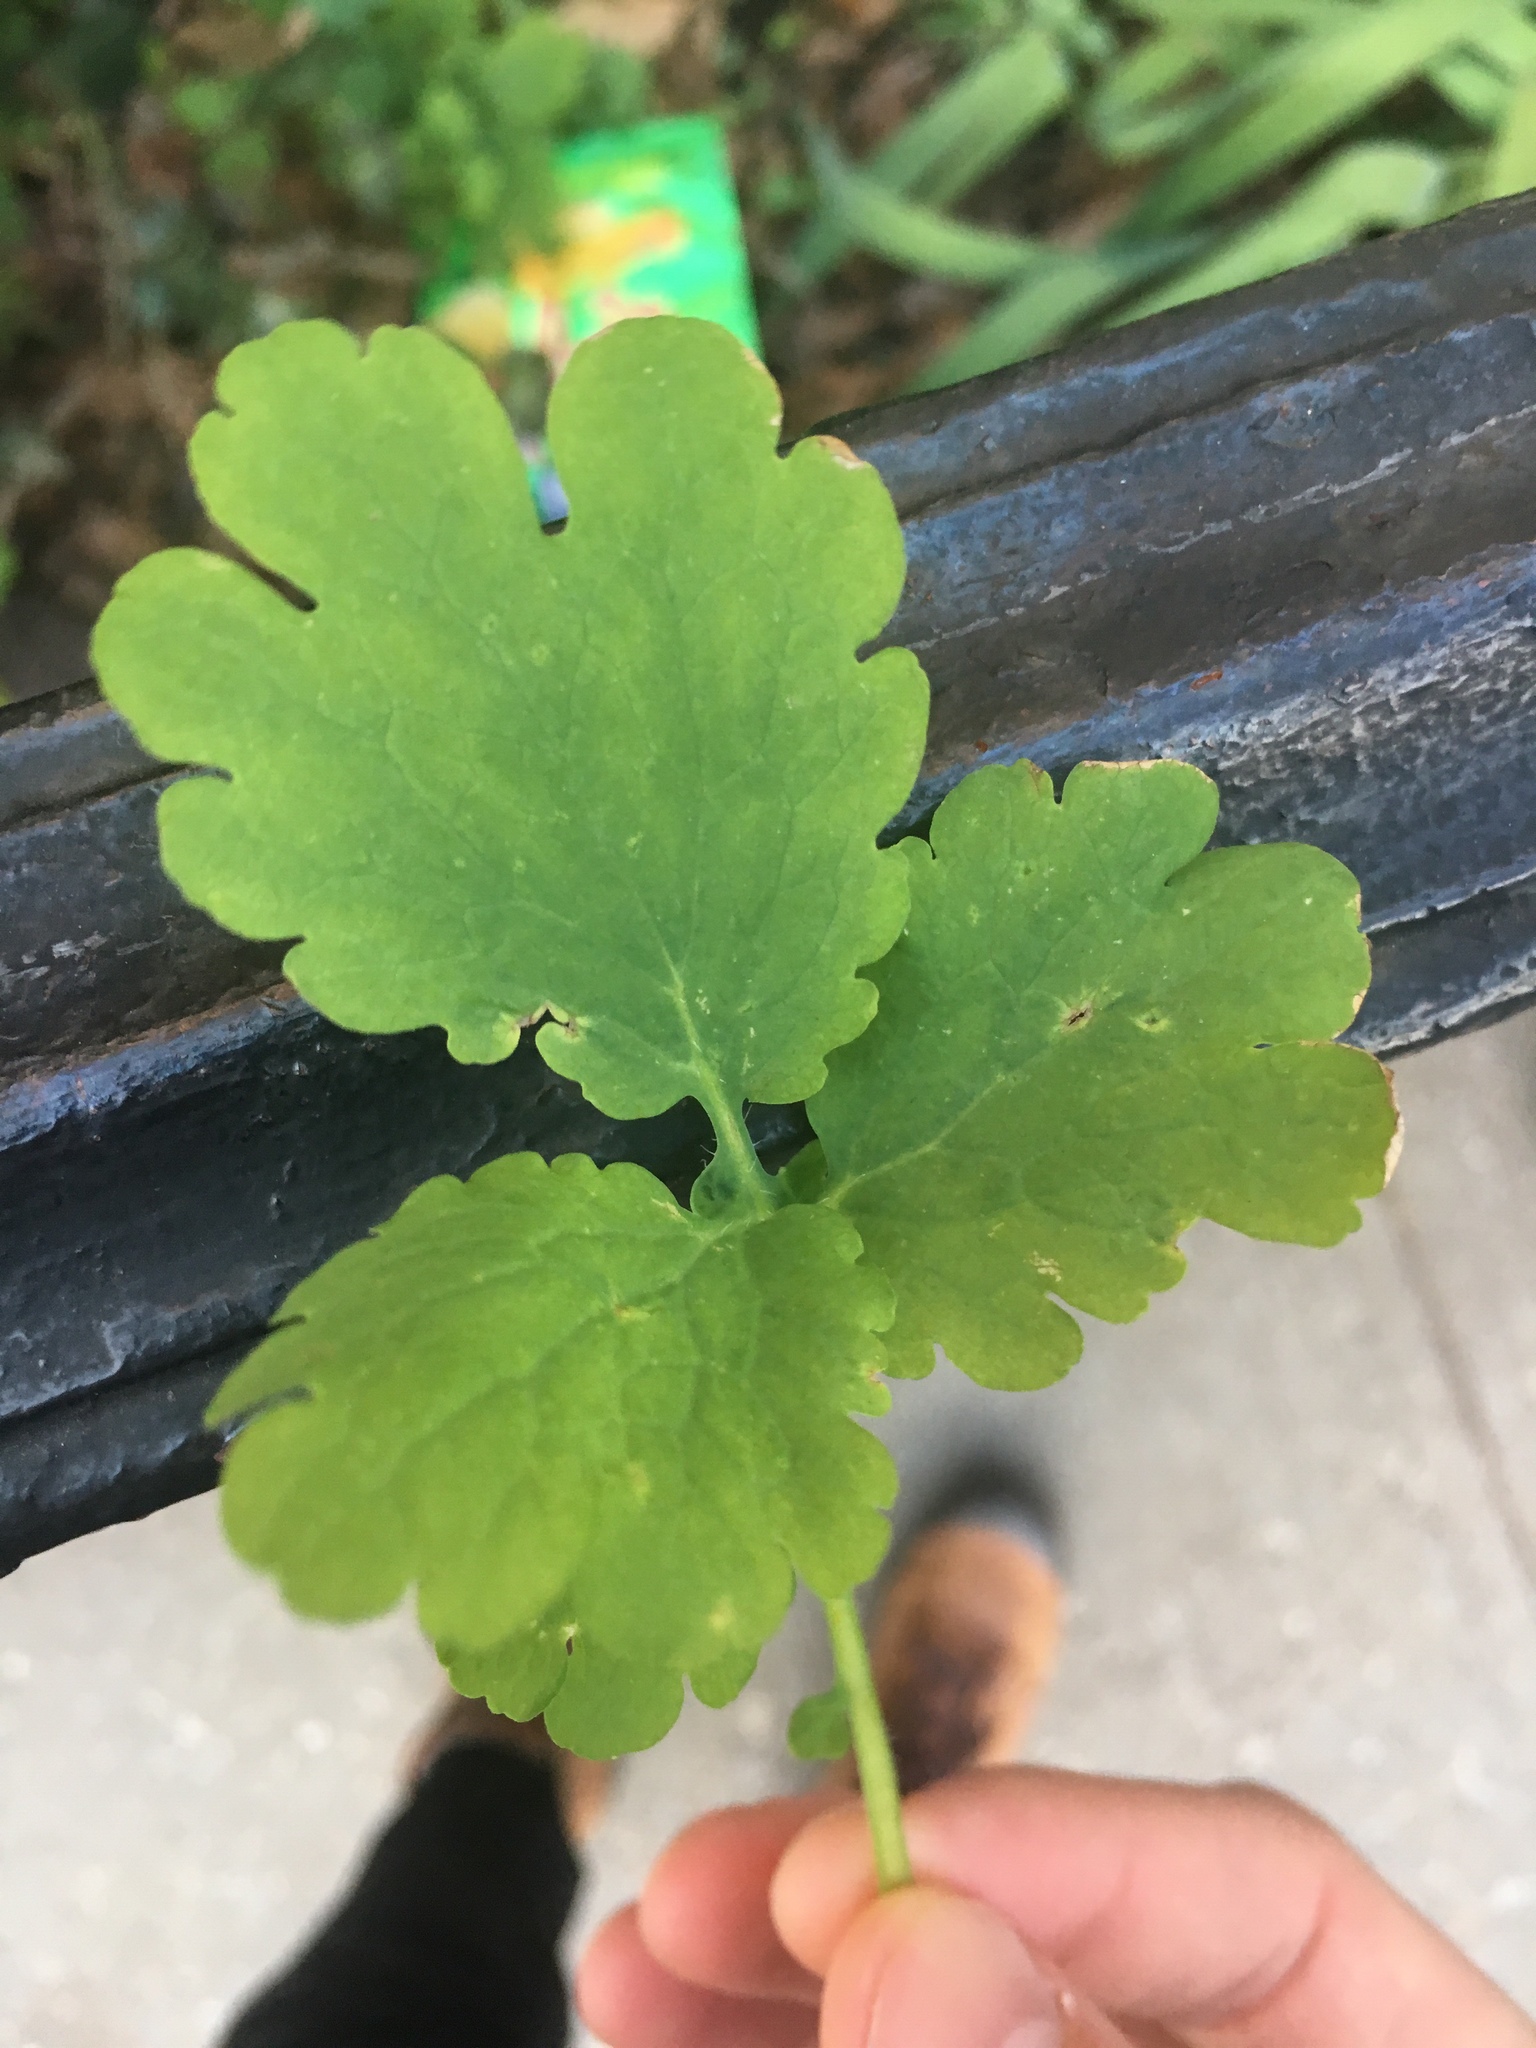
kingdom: Plantae
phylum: Tracheophyta
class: Magnoliopsida
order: Ranunculales
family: Papaveraceae
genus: Chelidonium
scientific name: Chelidonium majus
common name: Greater celandine
